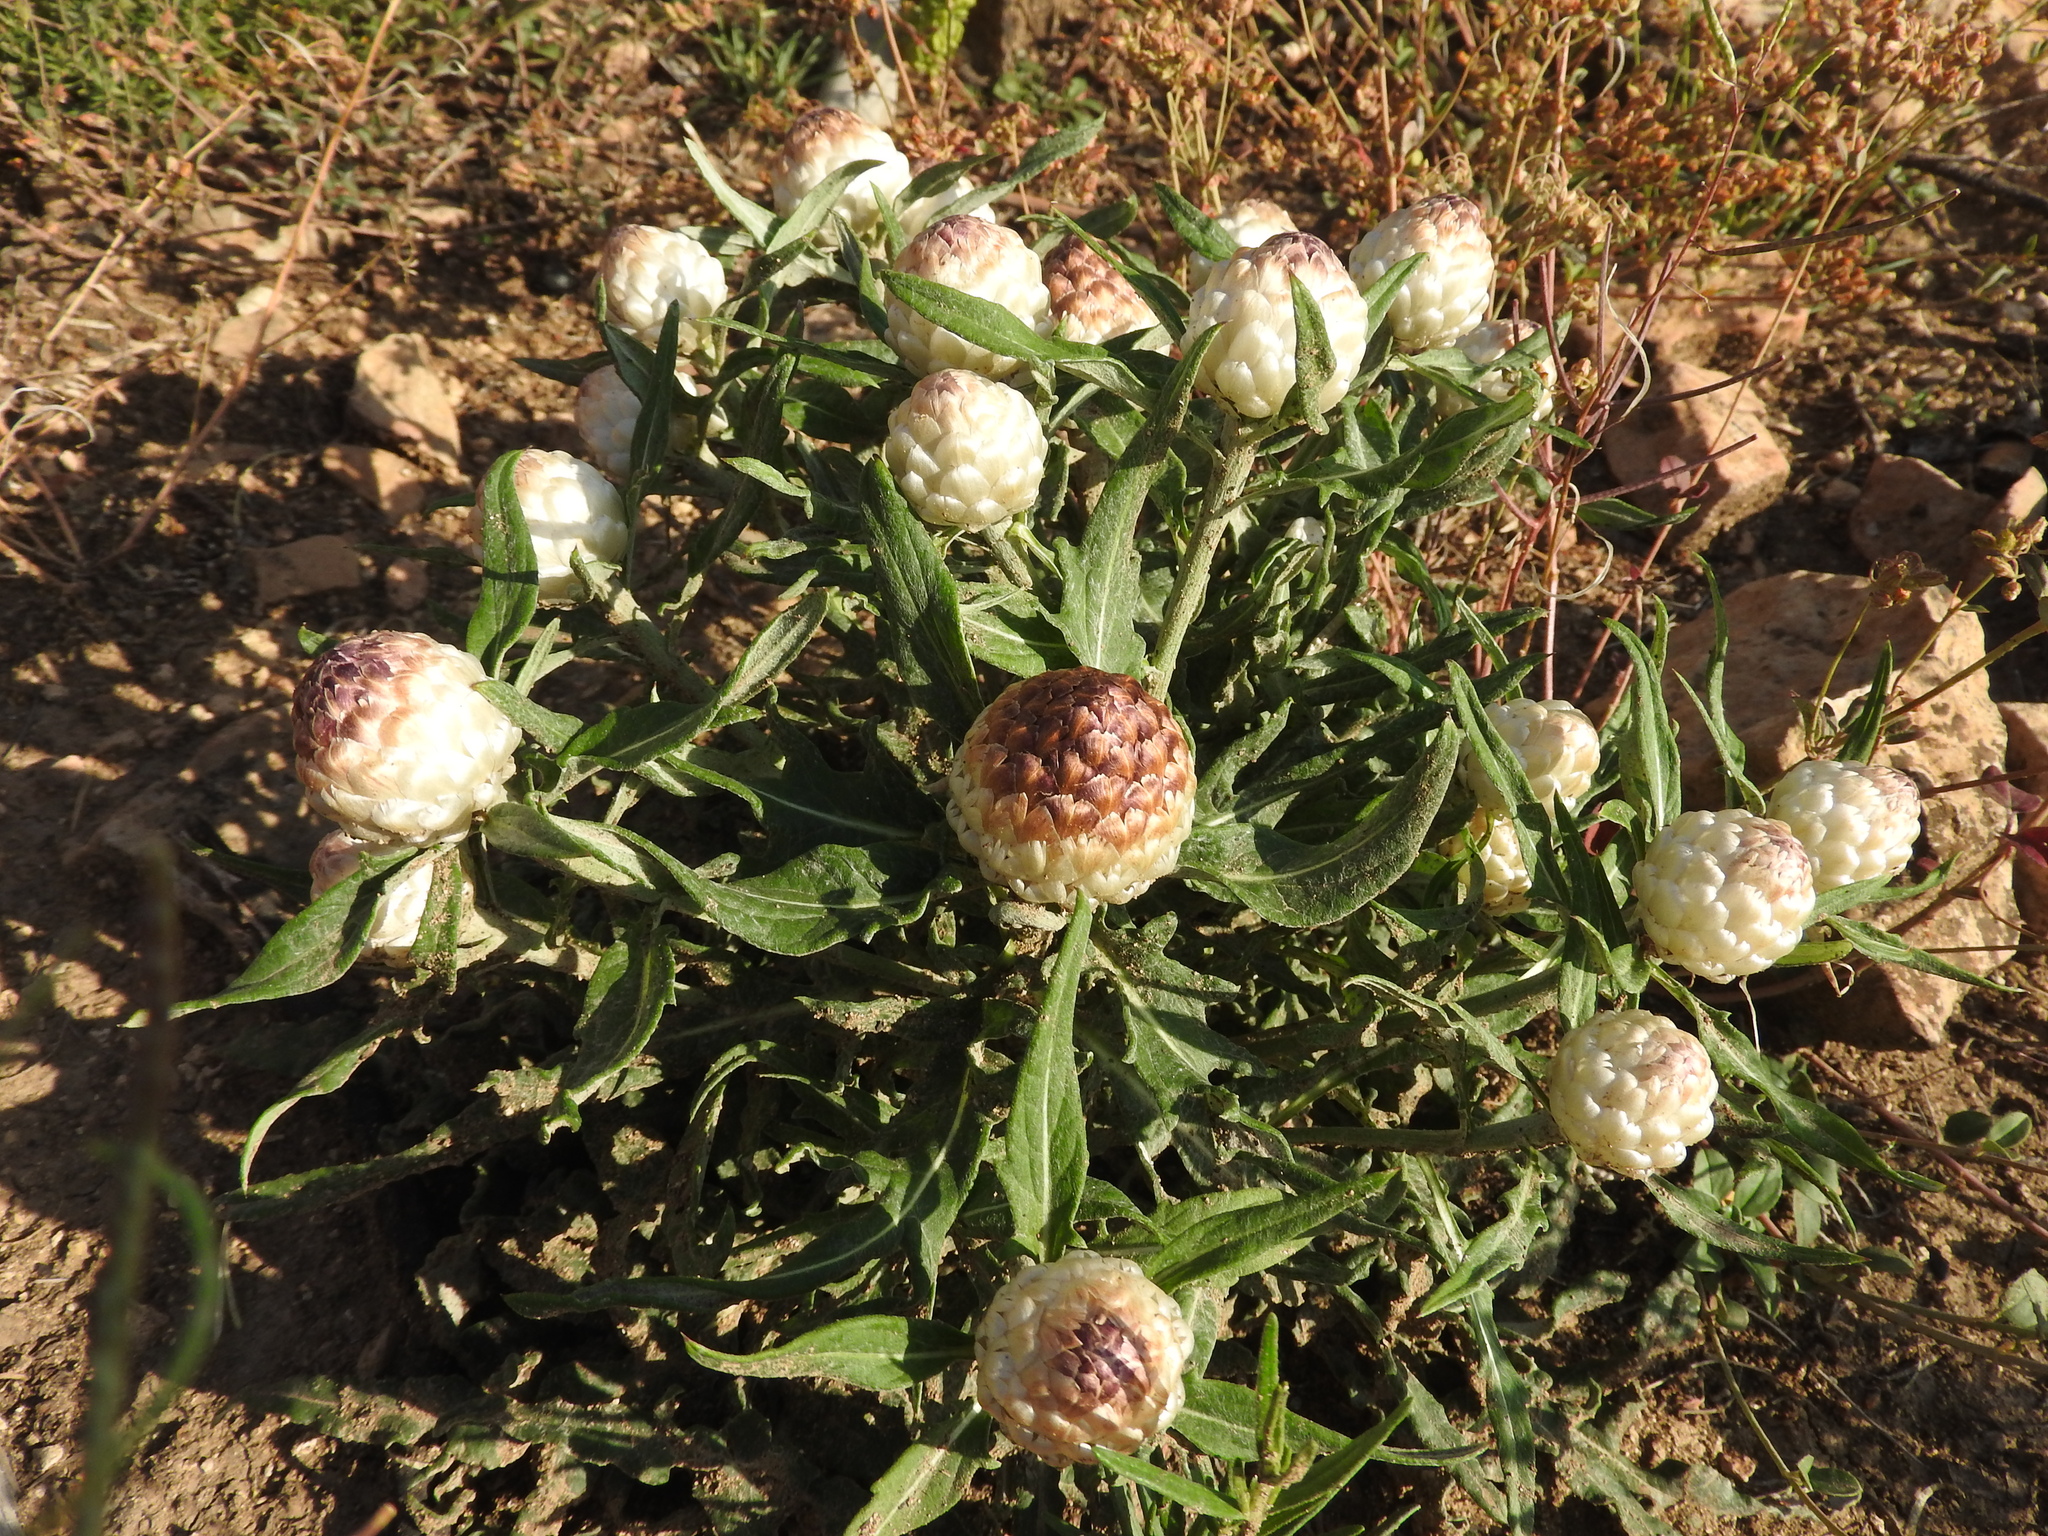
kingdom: Plantae
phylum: Tracheophyta
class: Magnoliopsida
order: Asterales
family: Asteraceae
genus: Leuzea
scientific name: Leuzea conifera
